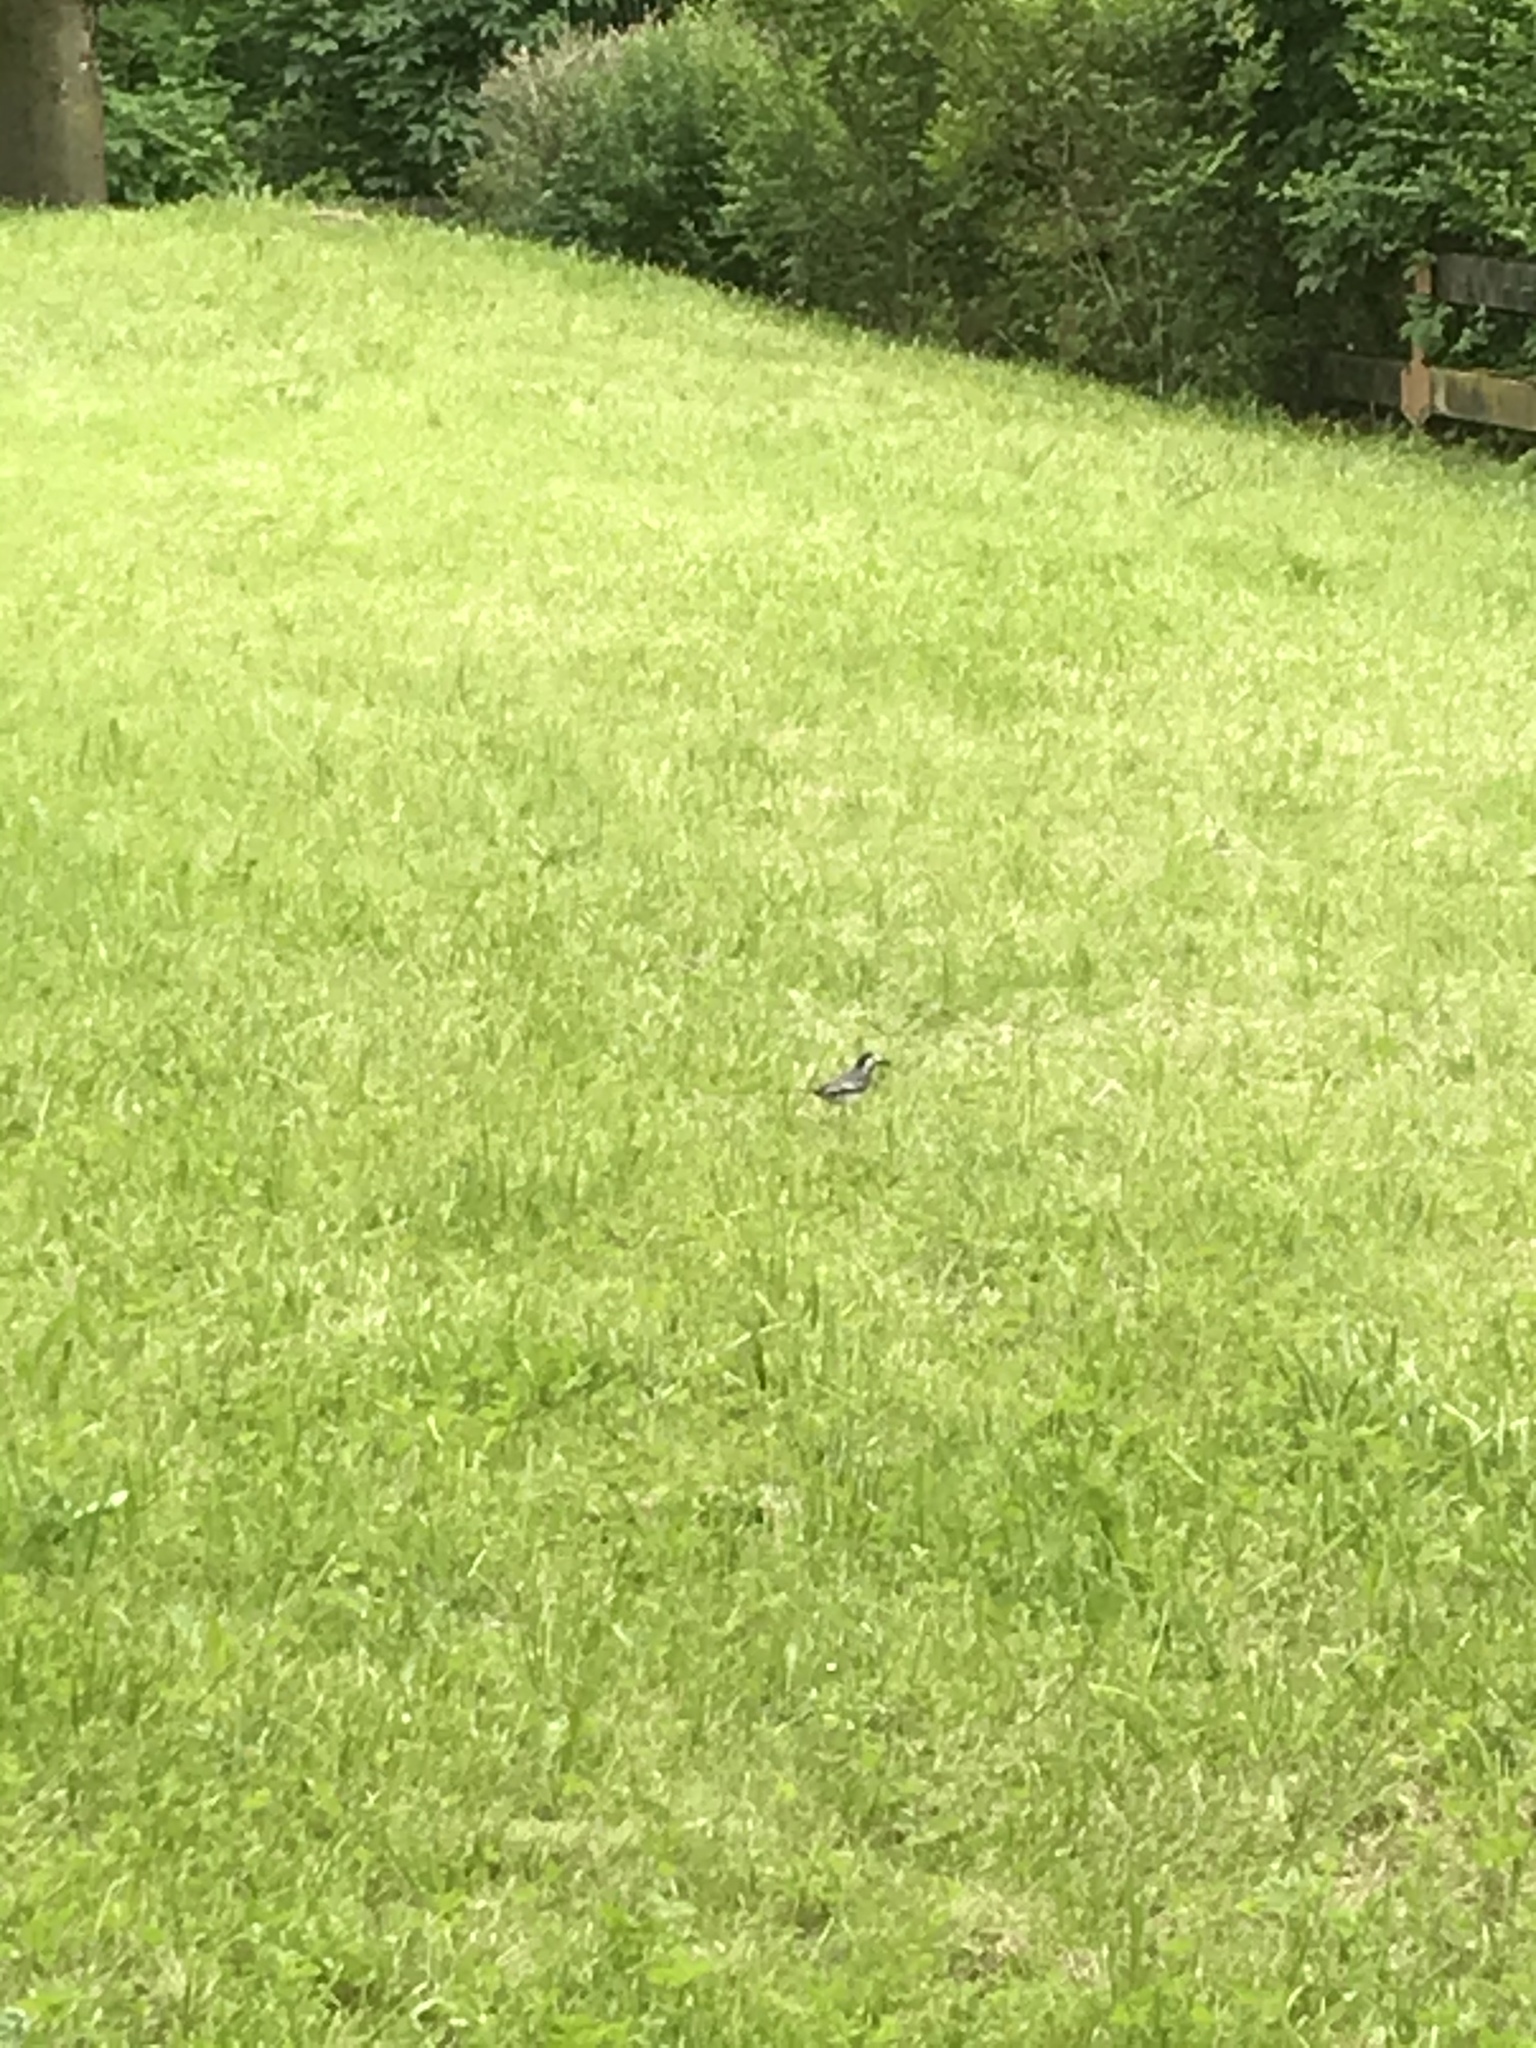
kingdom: Animalia
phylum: Chordata
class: Aves
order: Passeriformes
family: Motacillidae
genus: Motacilla
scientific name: Motacilla alba
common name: White wagtail
